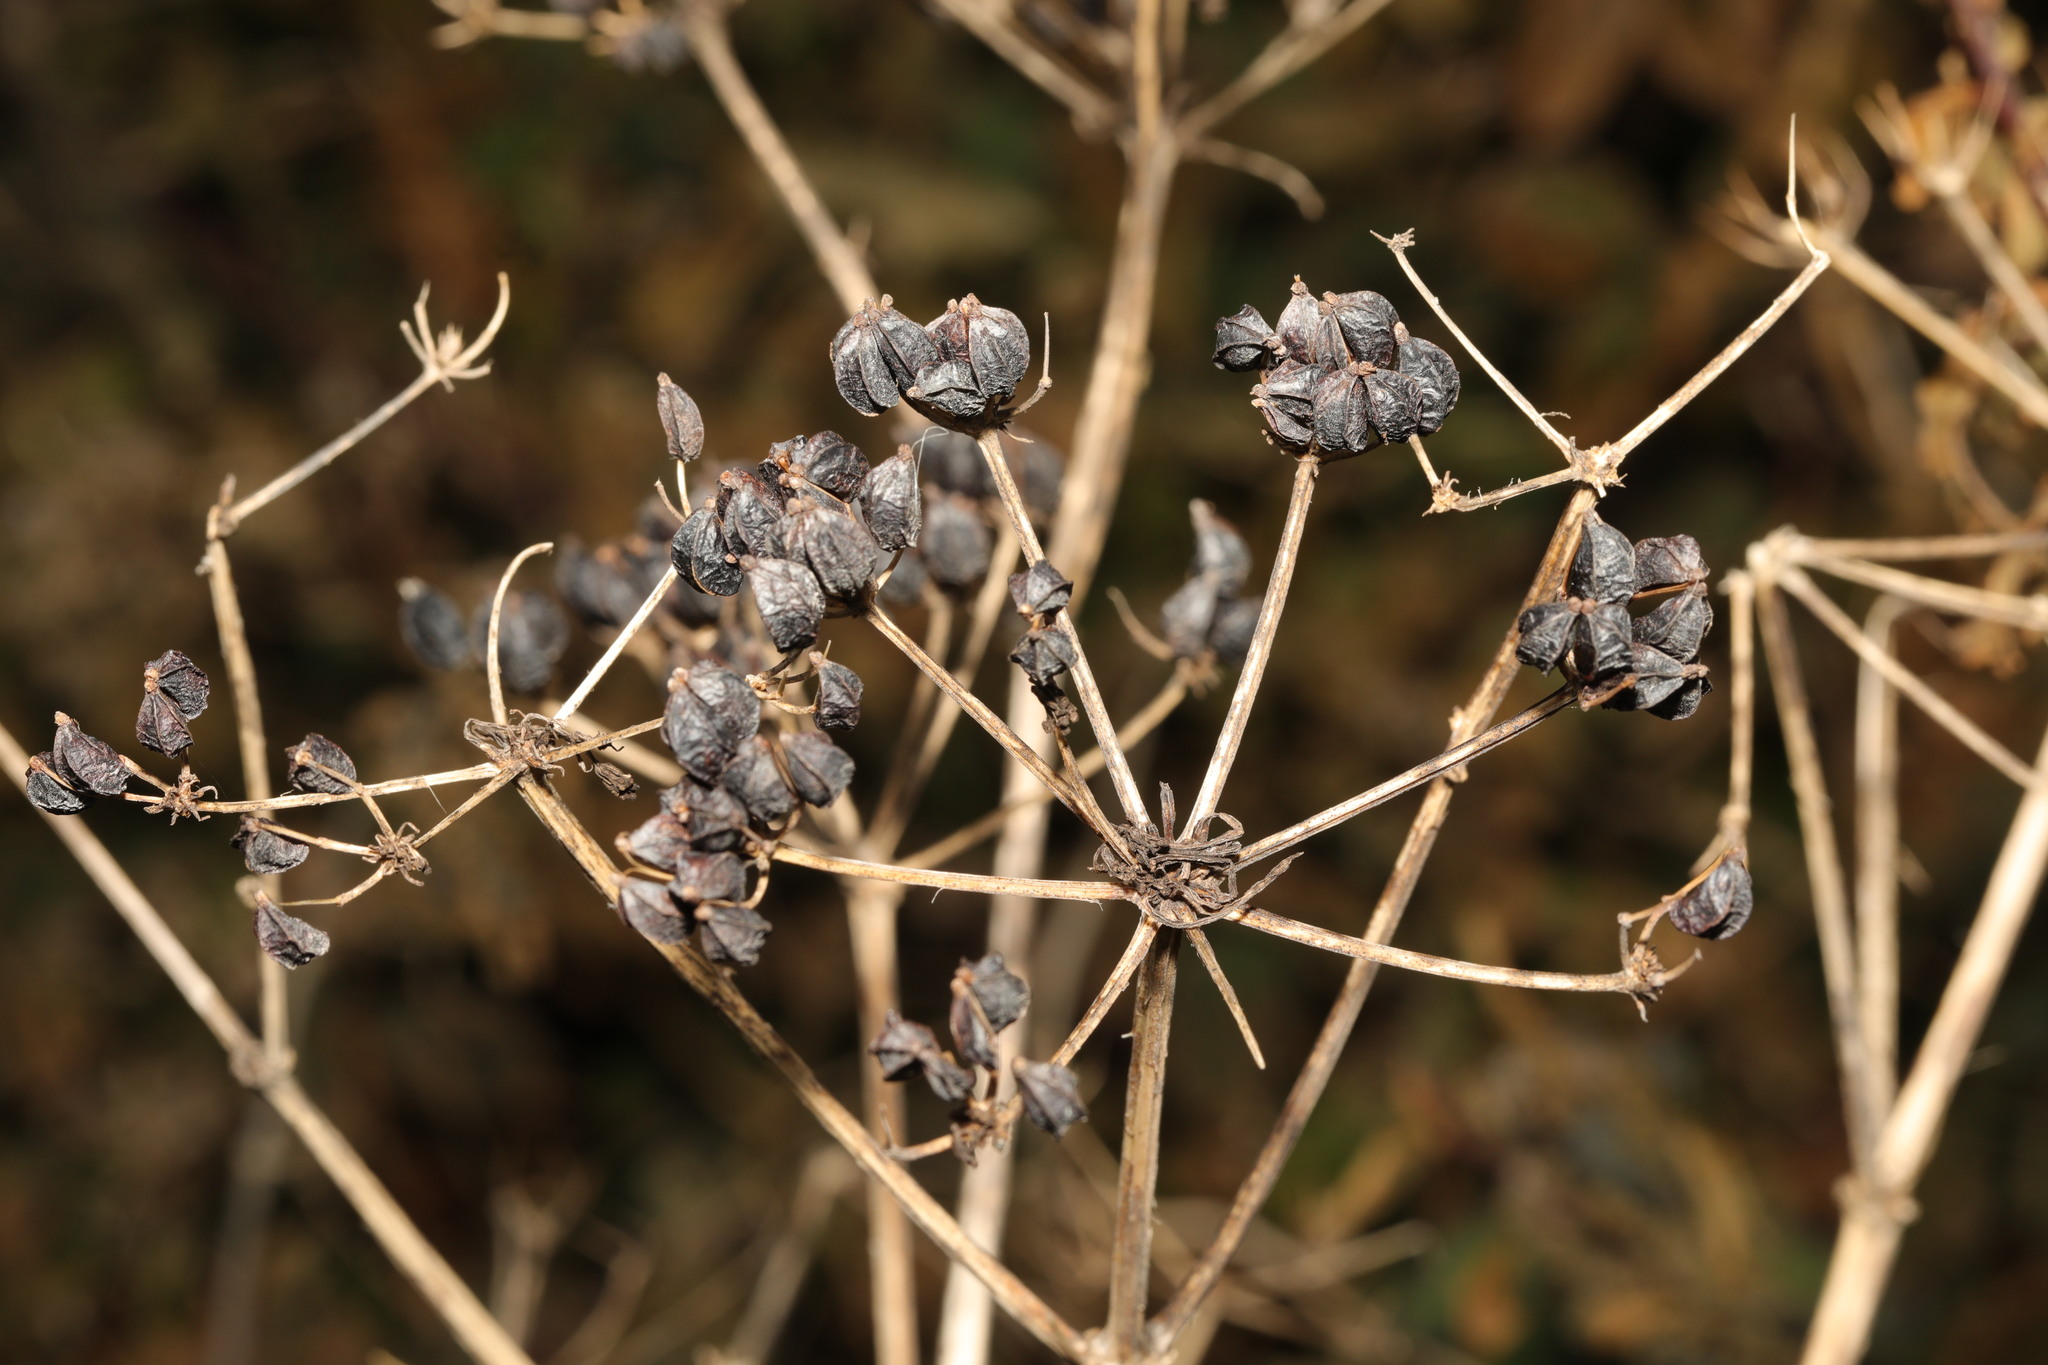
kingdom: Plantae
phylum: Tracheophyta
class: Magnoliopsida
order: Apiales
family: Apiaceae
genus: Smyrnium
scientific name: Smyrnium olusatrum
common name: Alexanders
